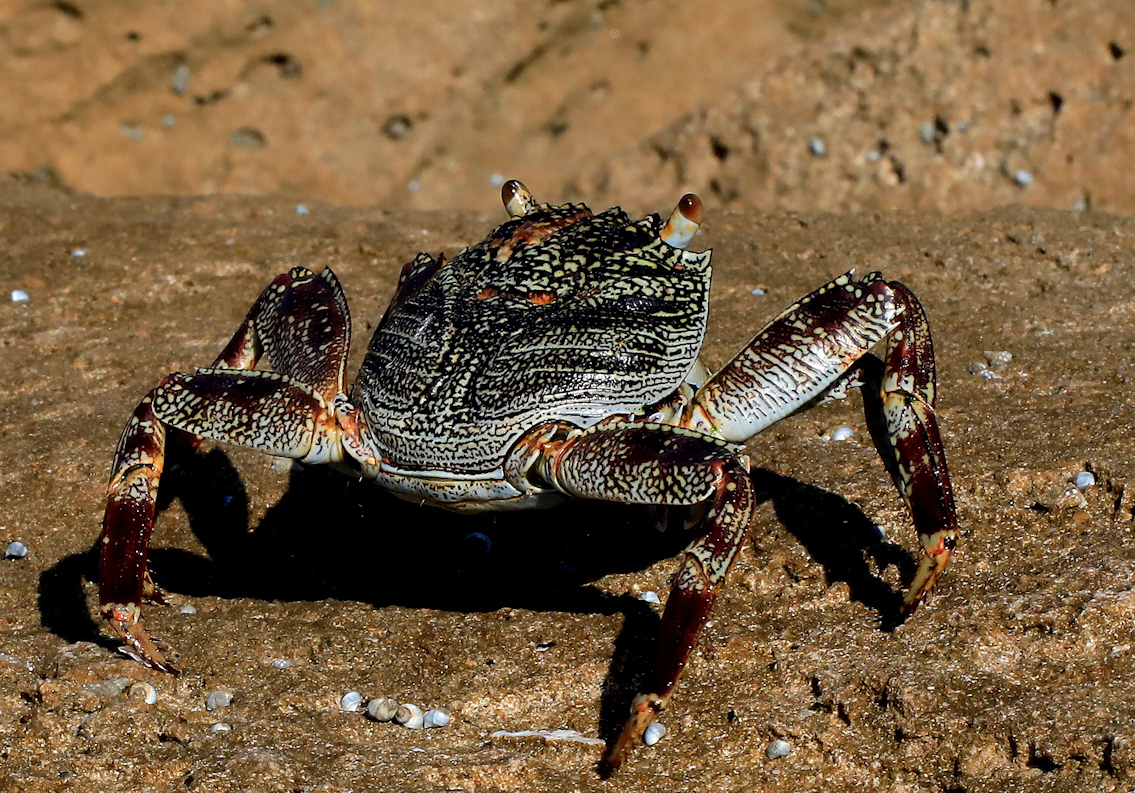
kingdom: Animalia
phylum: Arthropoda
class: Malacostraca
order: Decapoda
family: Grapsidae
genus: Grapsus
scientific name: Grapsus tenuicrustatus
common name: Natal lightfoot crab
